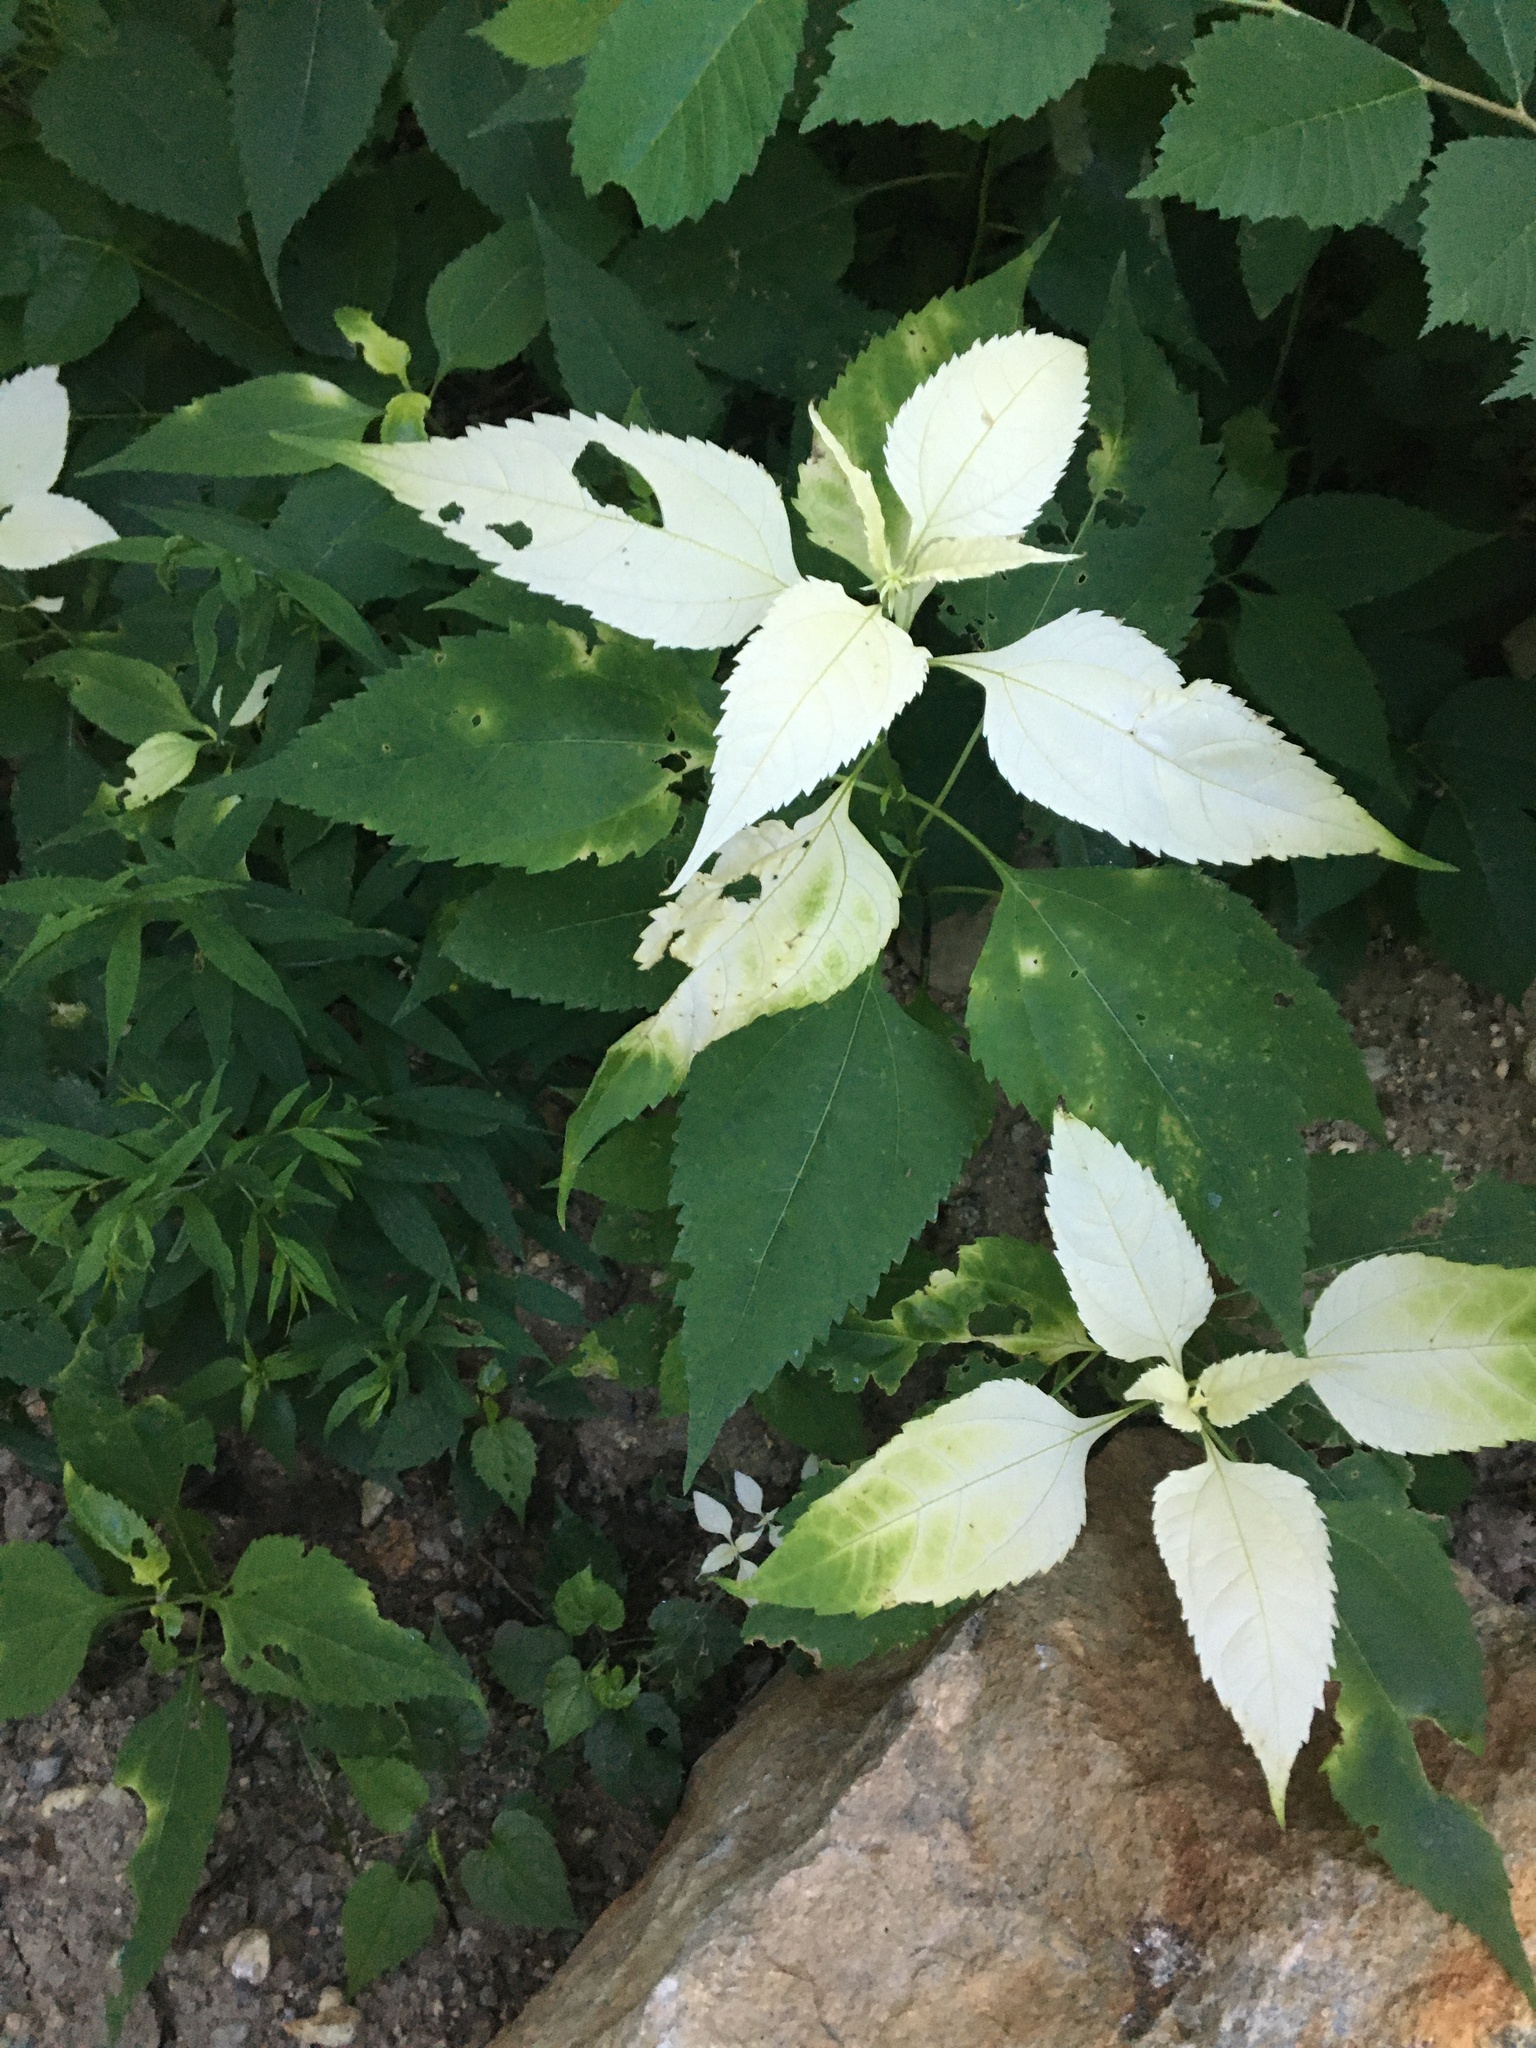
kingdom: Plantae
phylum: Tracheophyta
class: Magnoliopsida
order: Asterales
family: Asteraceae
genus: Ageratina
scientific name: Ageratina altissima
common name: White snakeroot
